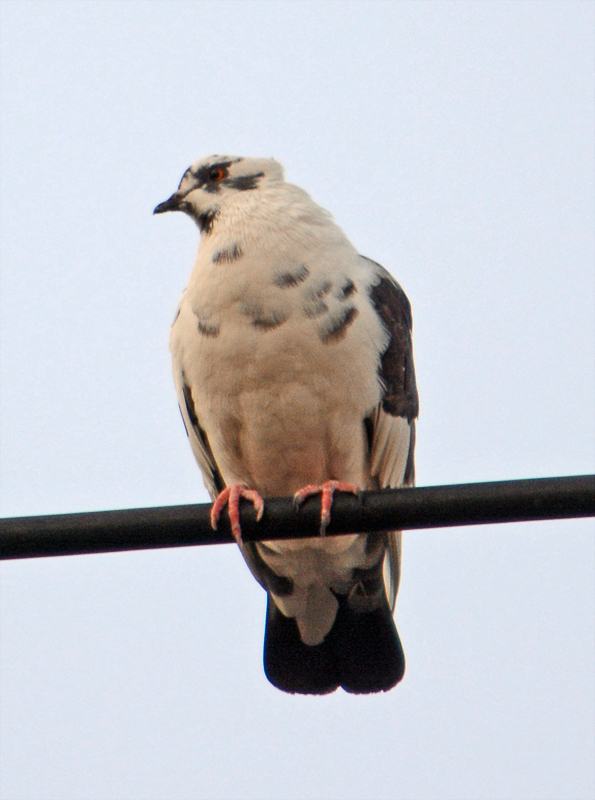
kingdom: Animalia
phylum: Chordata
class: Aves
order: Columbiformes
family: Columbidae
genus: Columba
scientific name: Columba livia
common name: Rock pigeon
